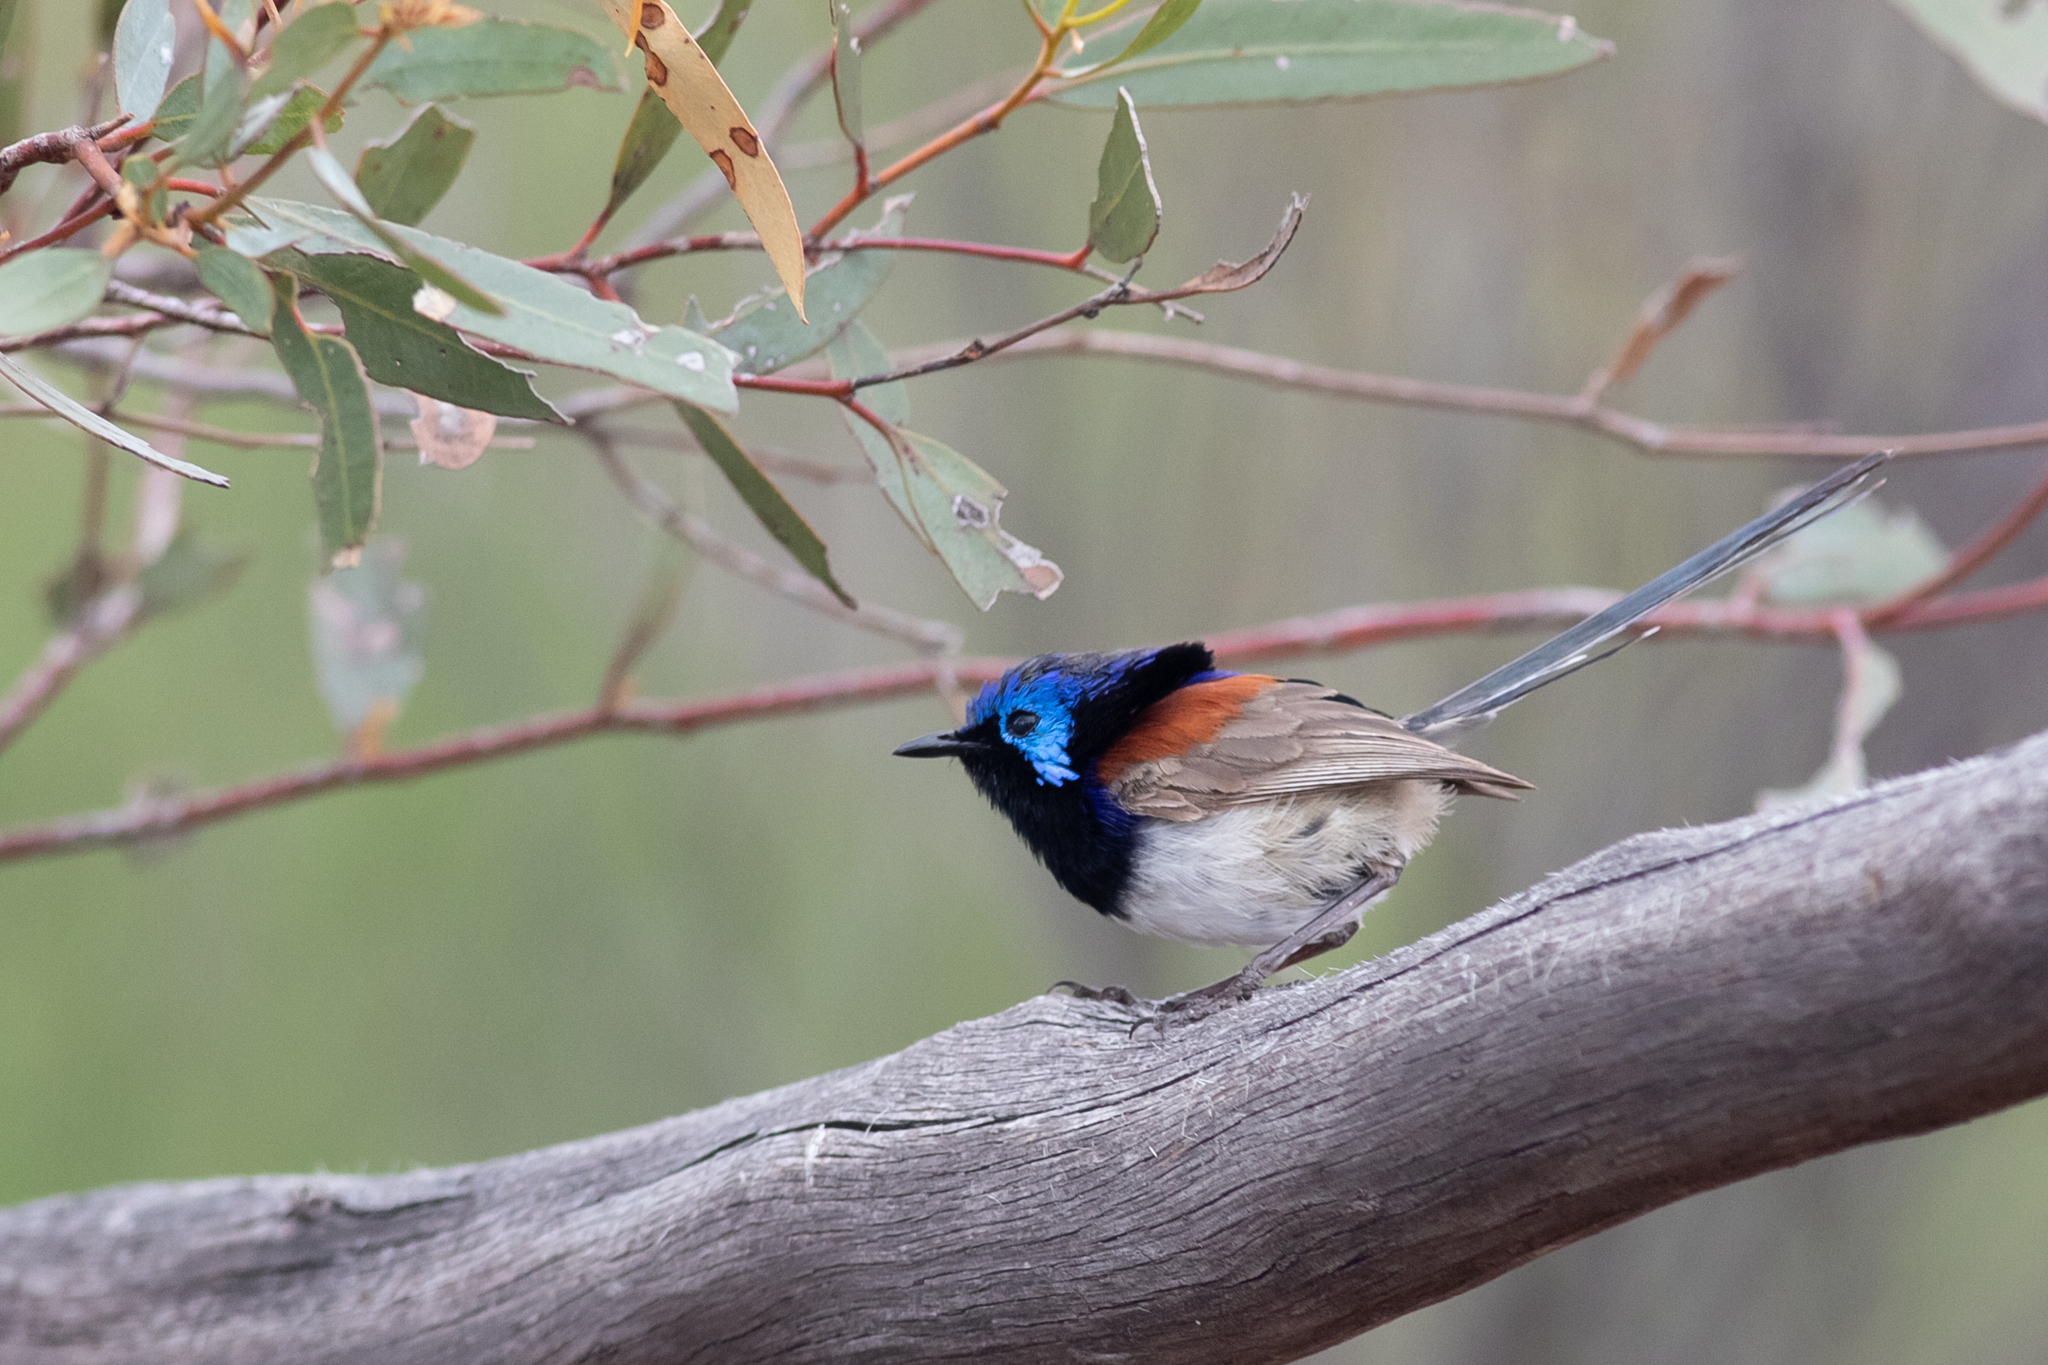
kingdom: Animalia
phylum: Chordata
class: Aves
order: Passeriformes
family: Maluridae
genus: Malurus
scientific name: Malurus assimilis
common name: Purple-backed fairywren
